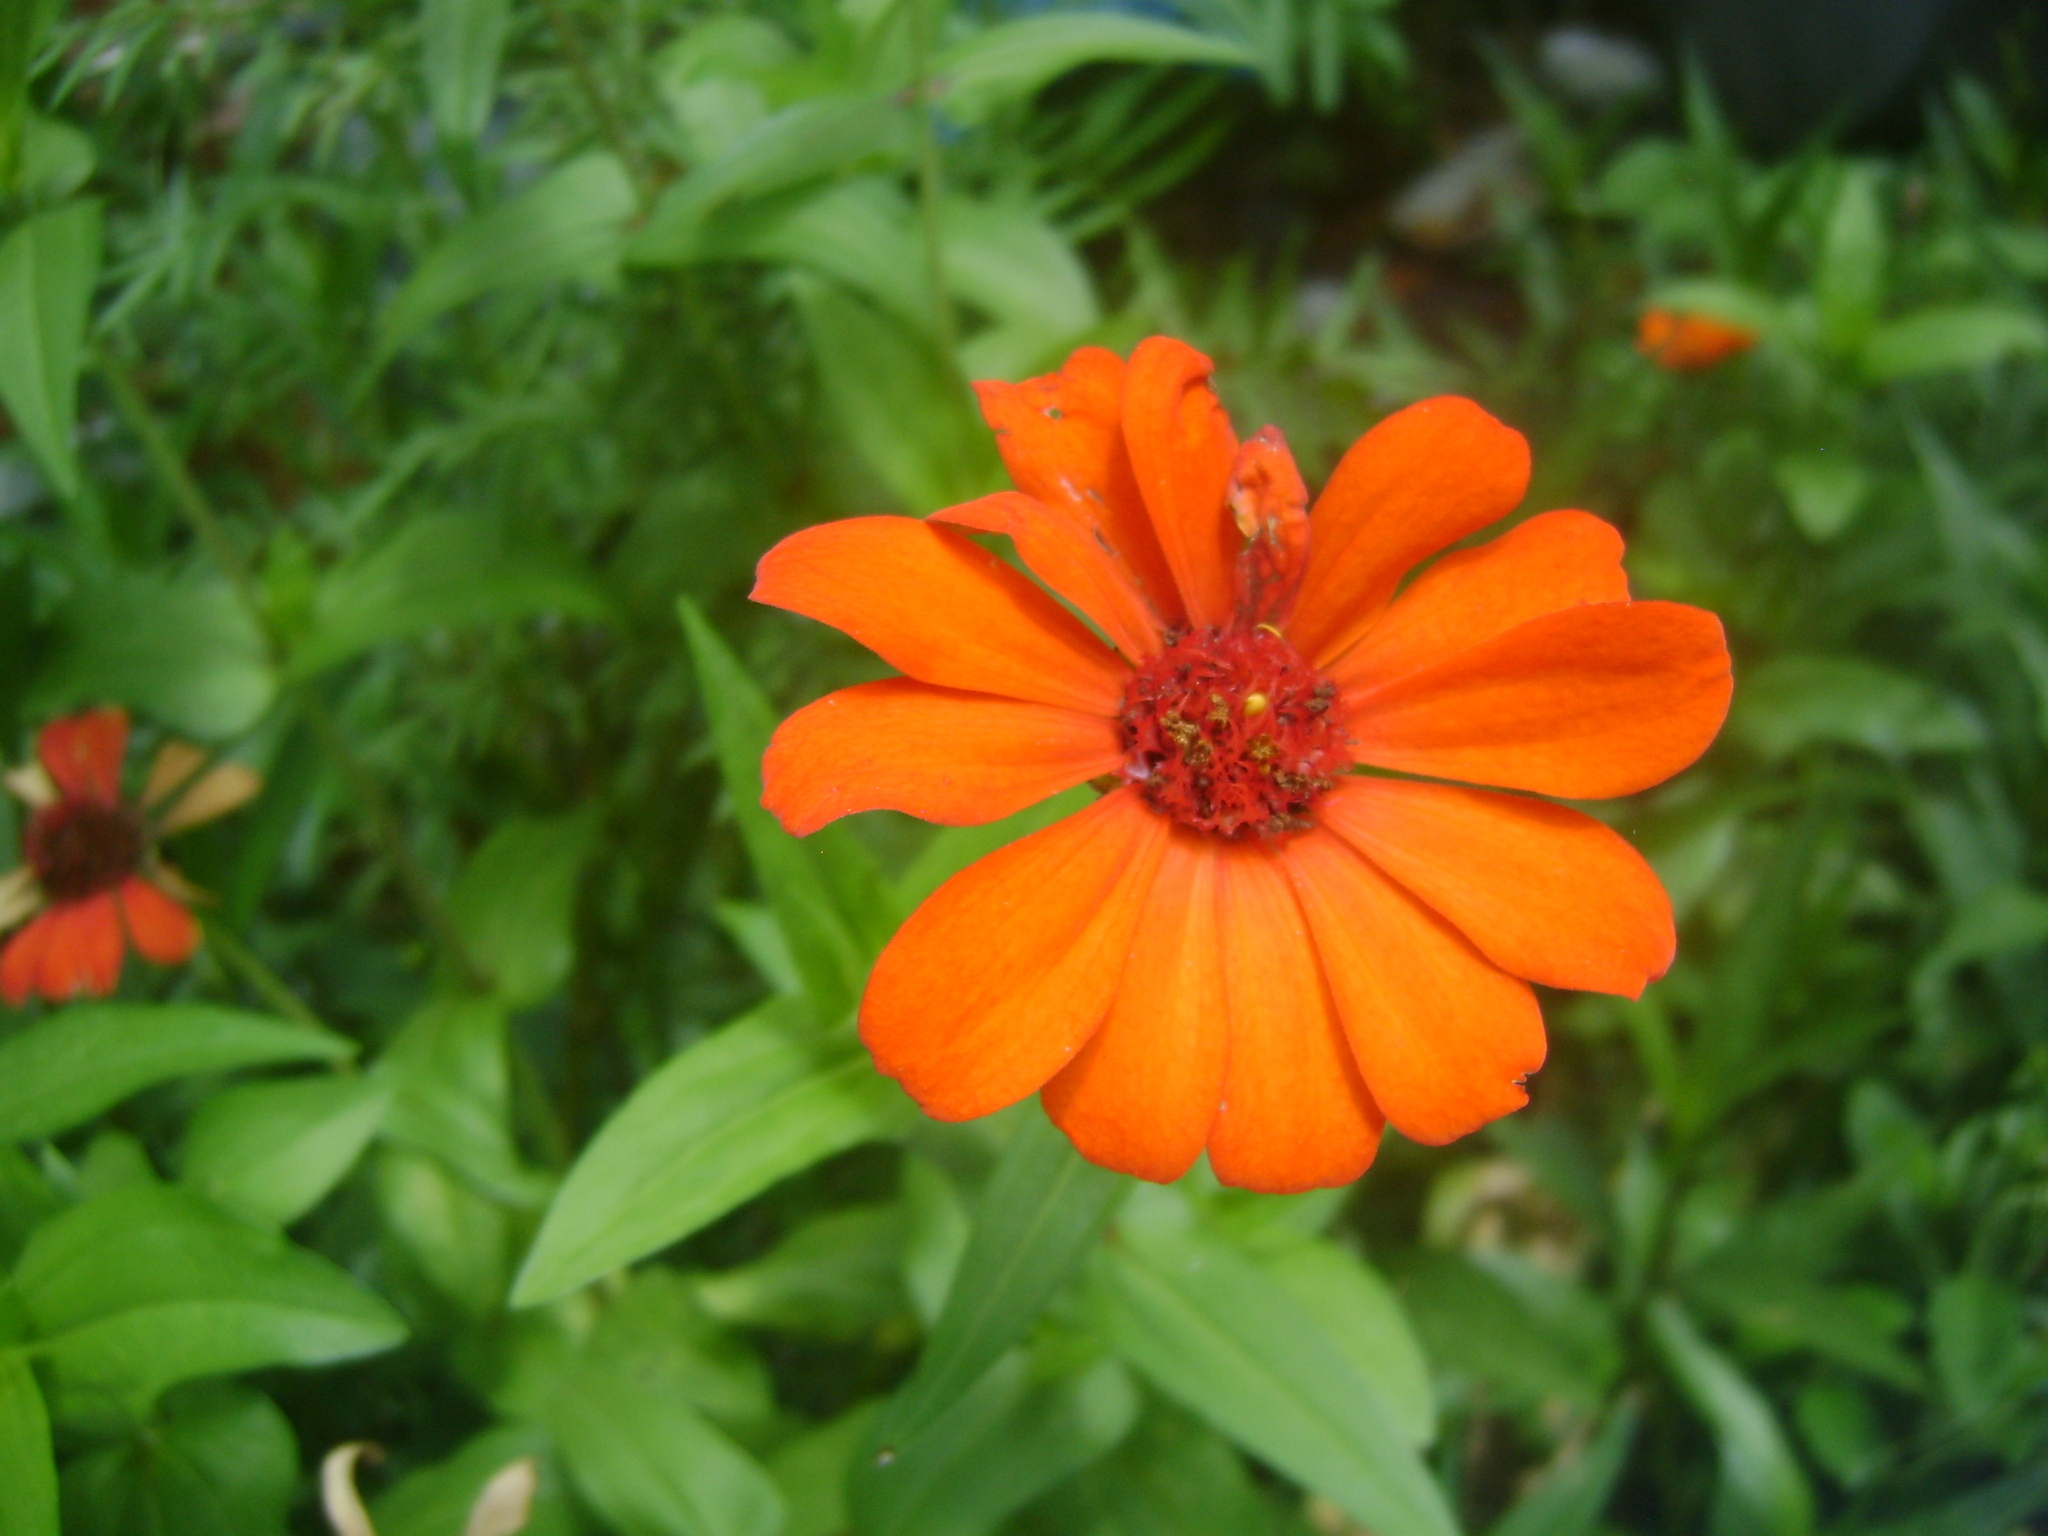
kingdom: Plantae
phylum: Tracheophyta
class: Magnoliopsida
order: Asterales
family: Asteraceae
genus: Zinnia
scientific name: Zinnia elegans
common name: Youth-and-age
